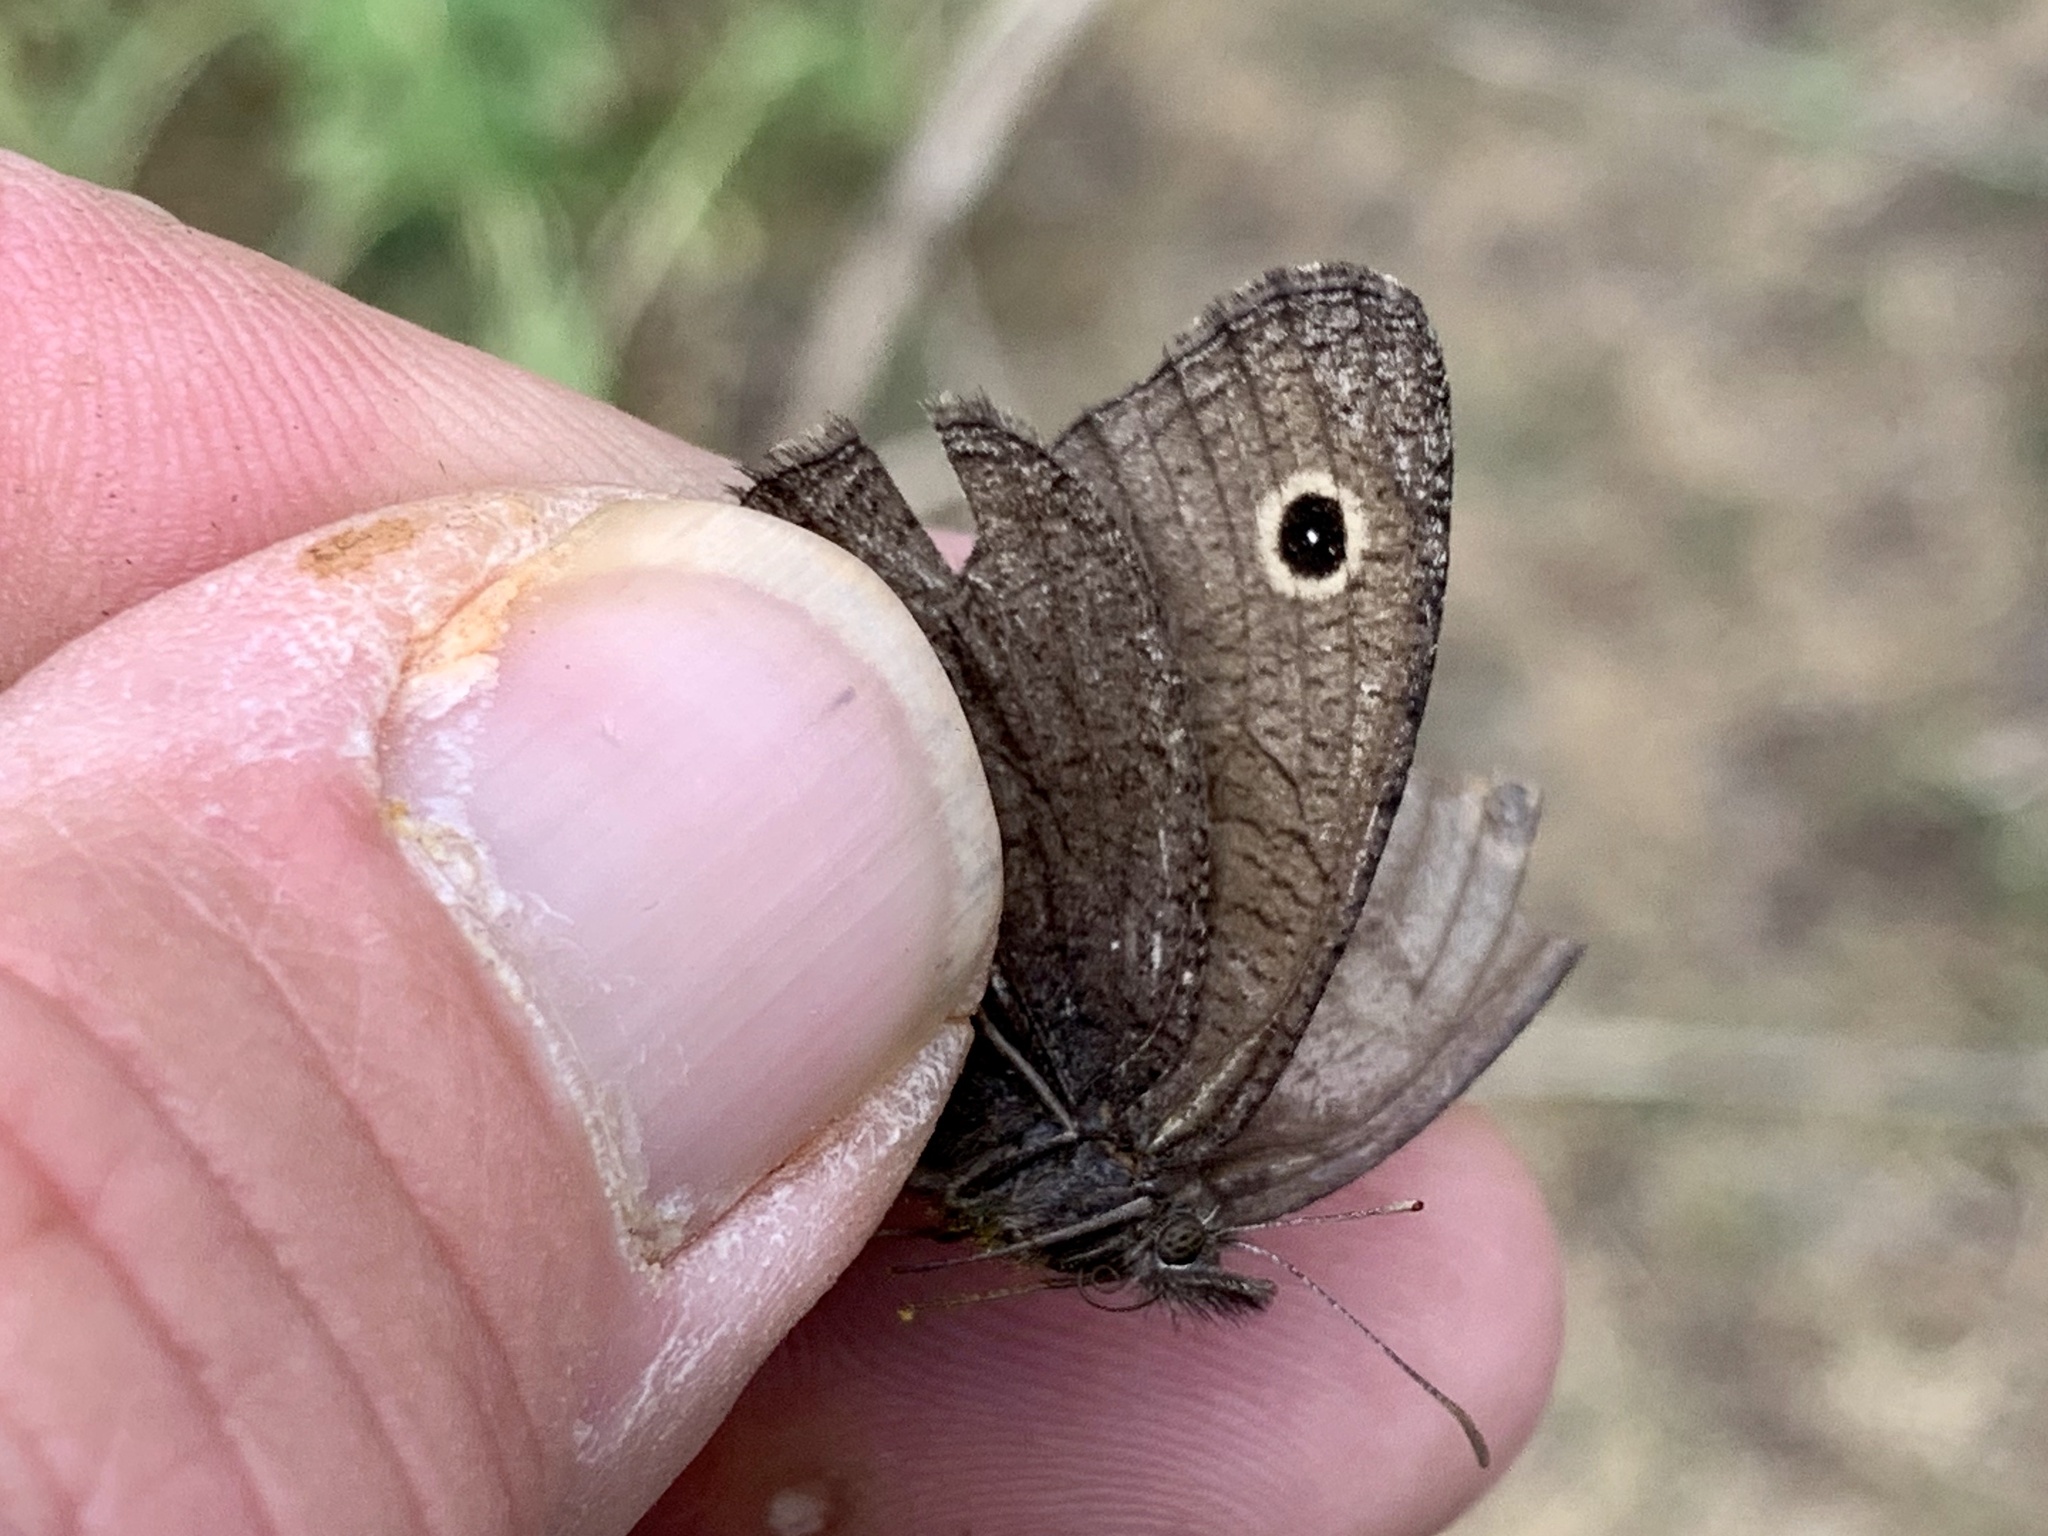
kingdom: Animalia
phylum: Arthropoda
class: Insecta
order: Lepidoptera
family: Nymphalidae
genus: Cercyonis
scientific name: Cercyonis oetus
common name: Small wood-nymph
